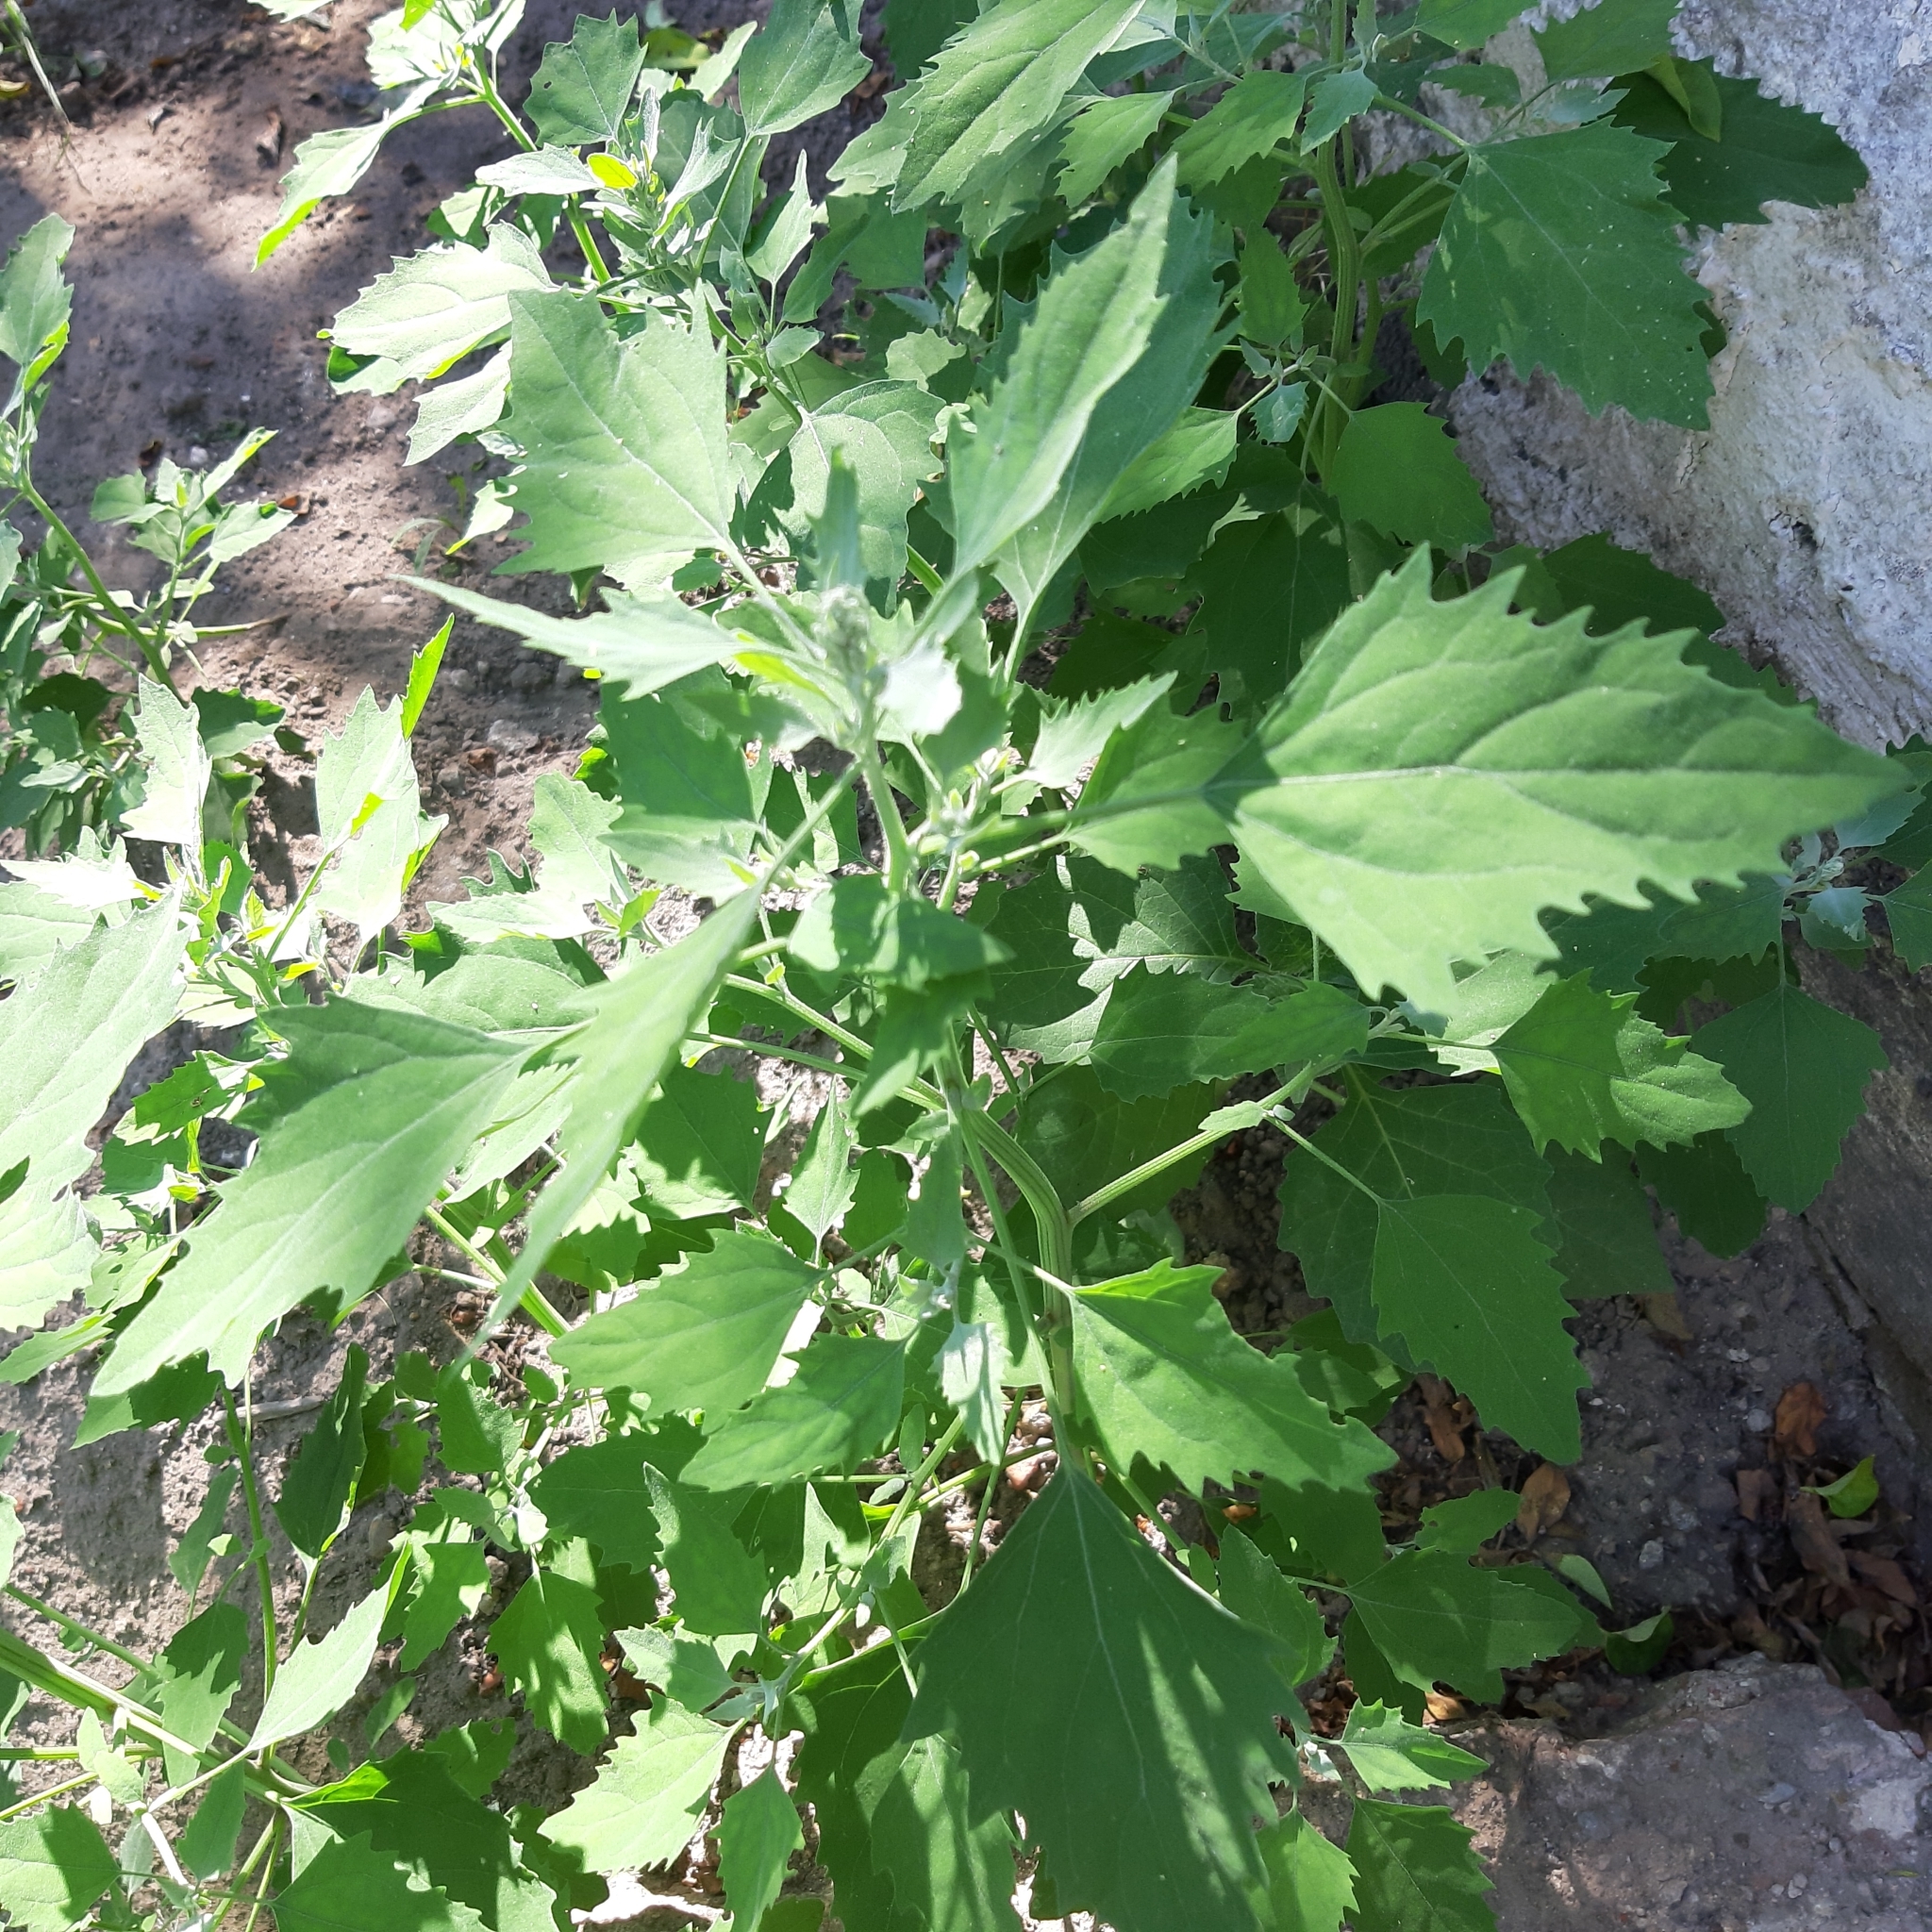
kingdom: Plantae
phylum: Tracheophyta
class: Magnoliopsida
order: Caryophyllales
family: Amaranthaceae
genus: Chenopodium
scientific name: Chenopodium album
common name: Fat-hen
